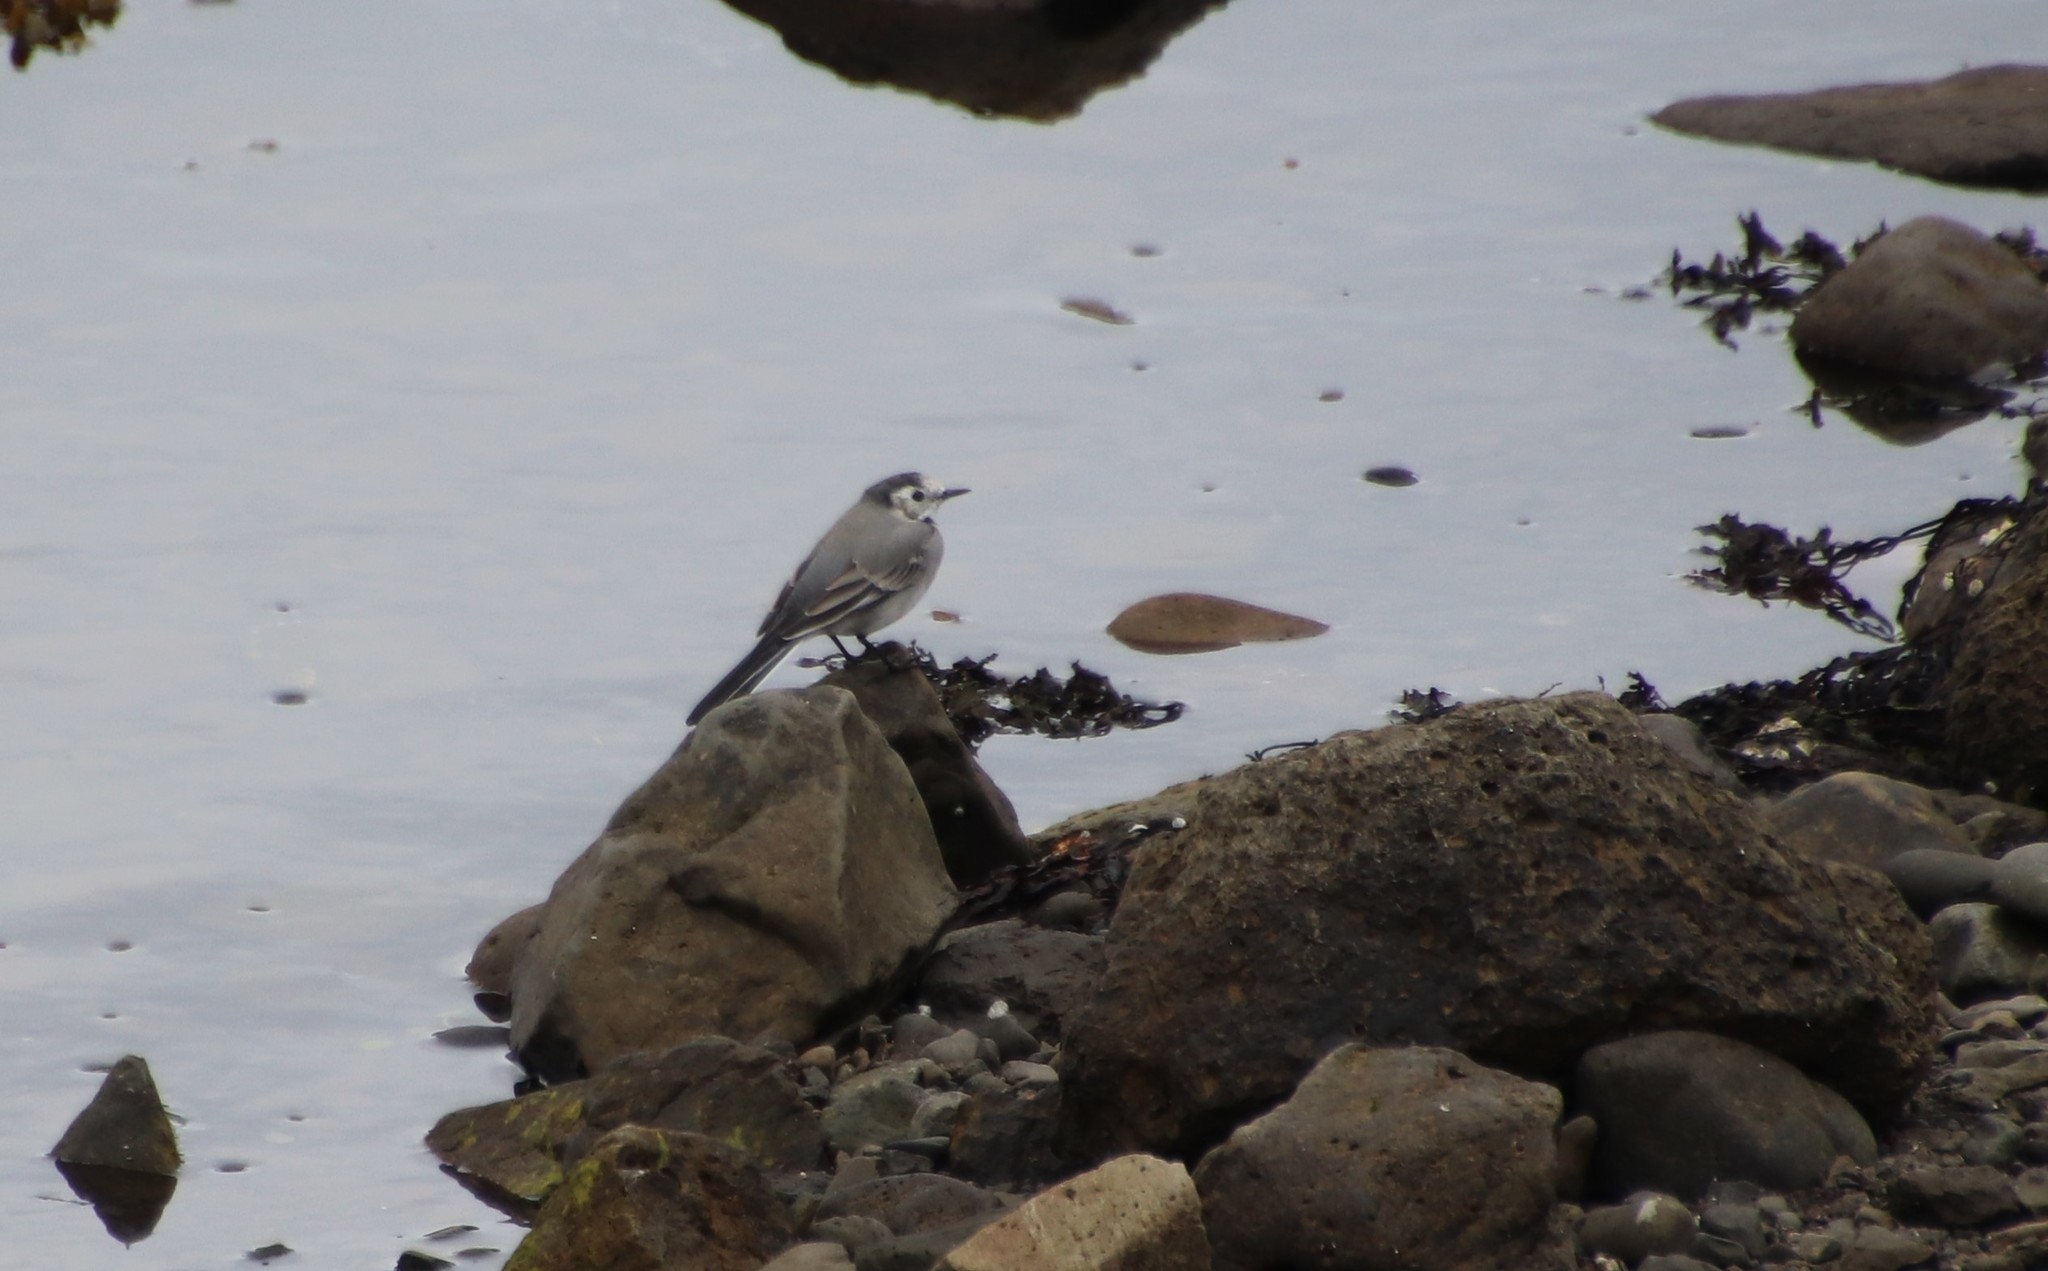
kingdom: Animalia
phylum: Chordata
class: Aves
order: Passeriformes
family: Motacillidae
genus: Motacilla
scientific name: Motacilla alba
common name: White wagtail
